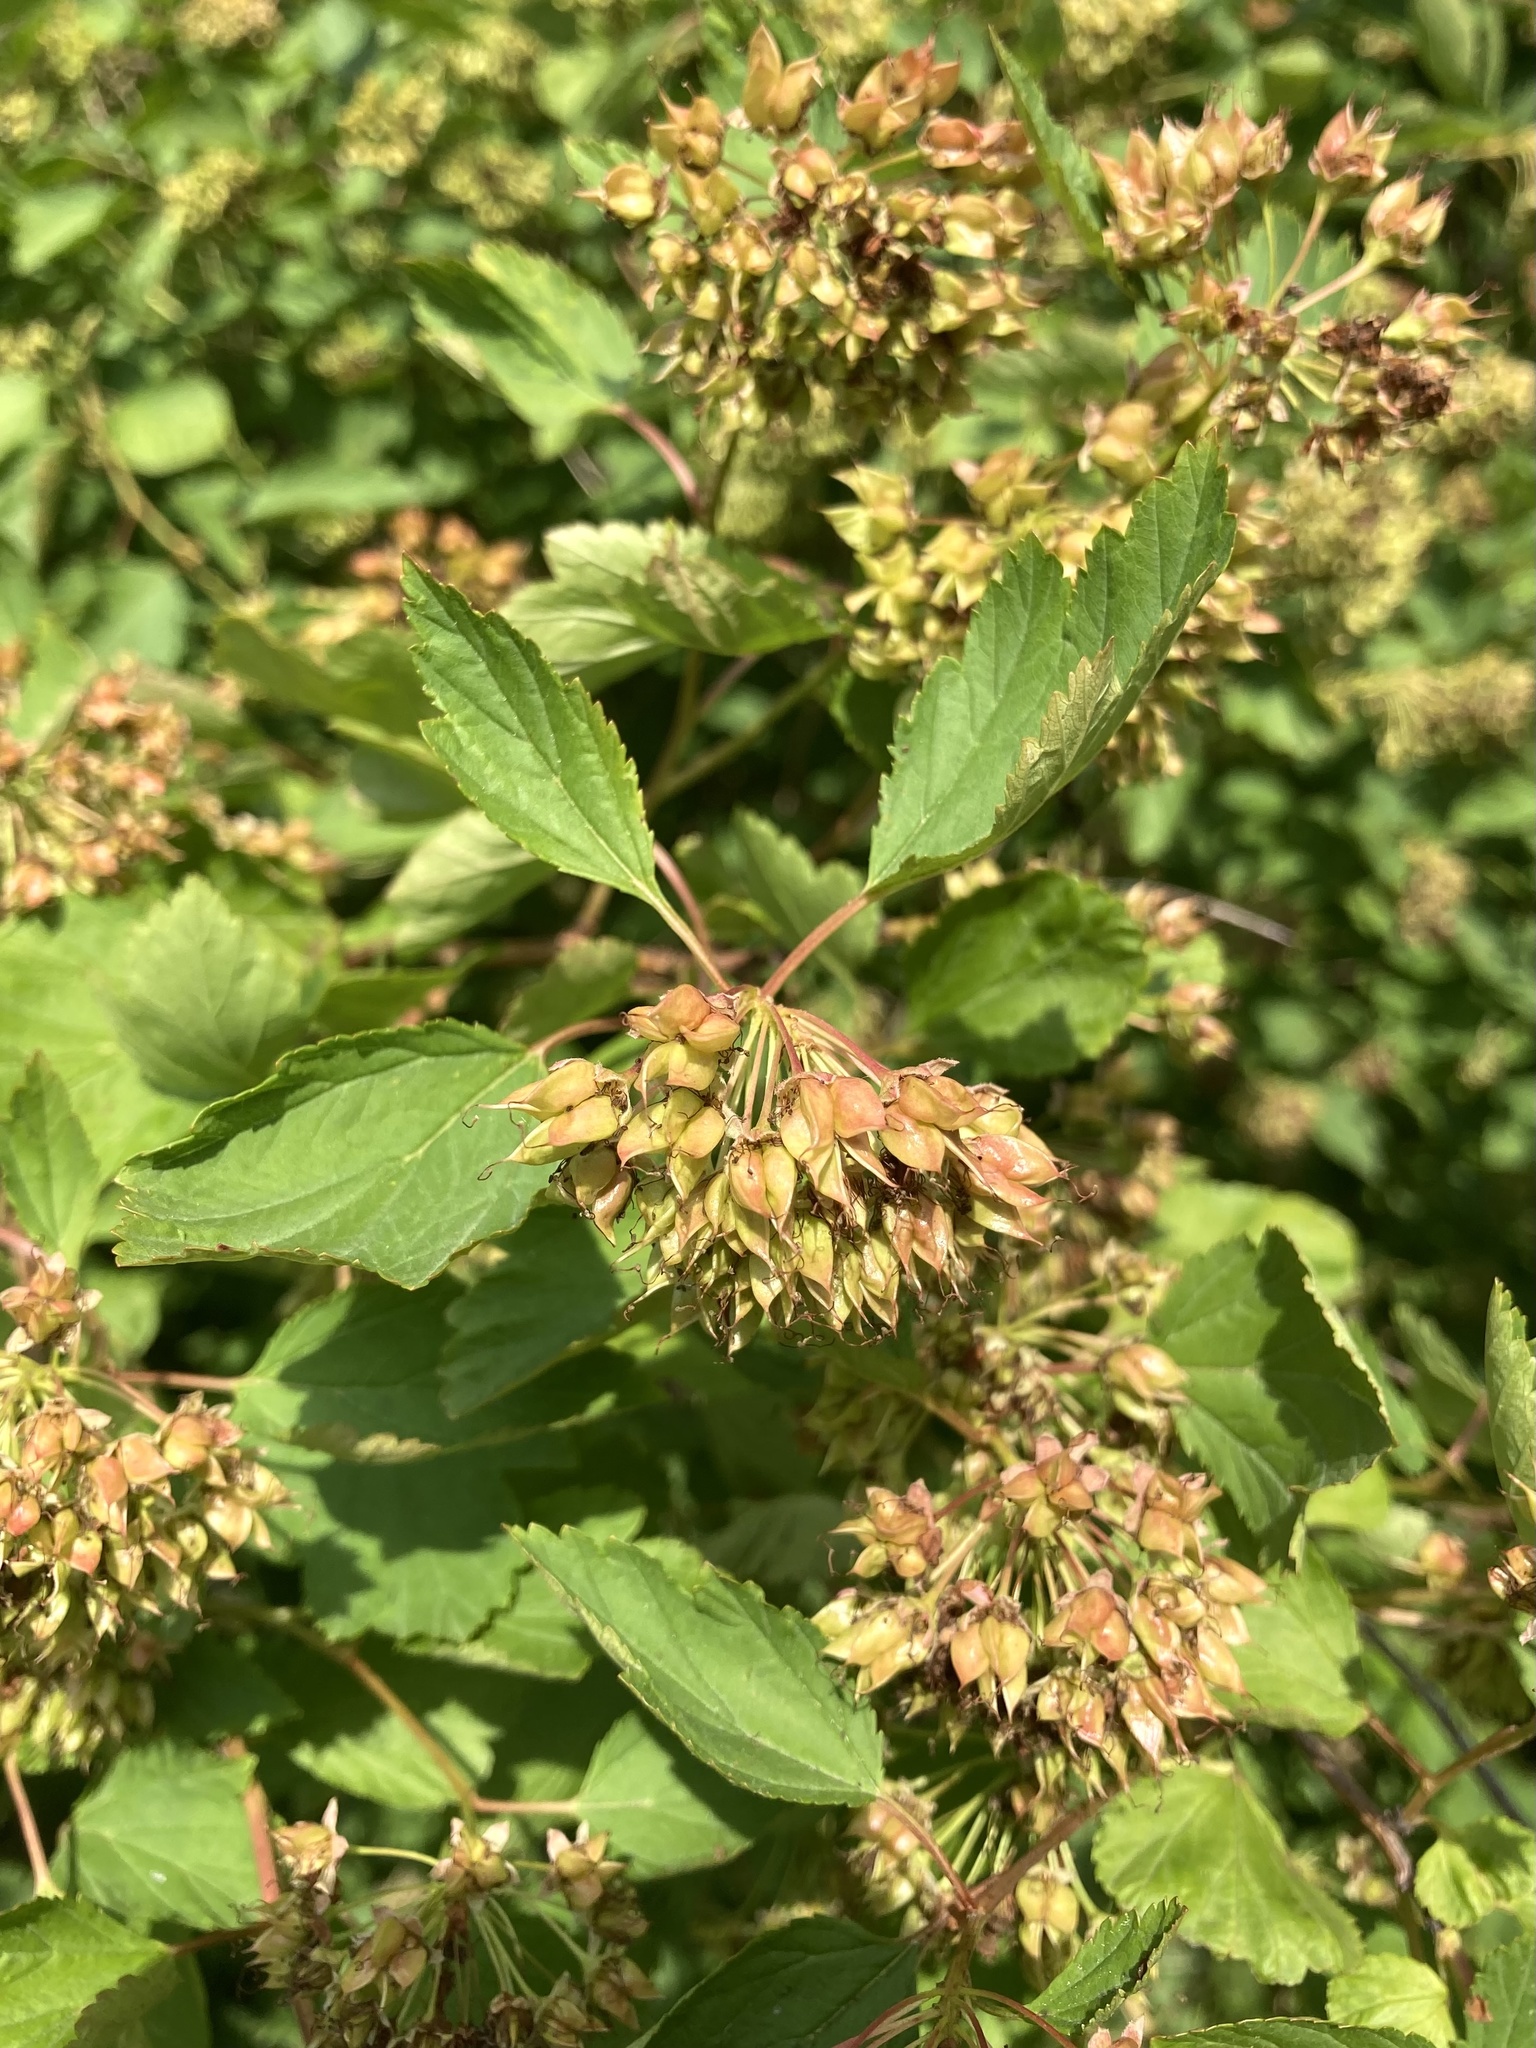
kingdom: Plantae
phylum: Tracheophyta
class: Magnoliopsida
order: Rosales
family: Rosaceae
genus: Physocarpus
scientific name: Physocarpus opulifolius
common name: Ninebark
